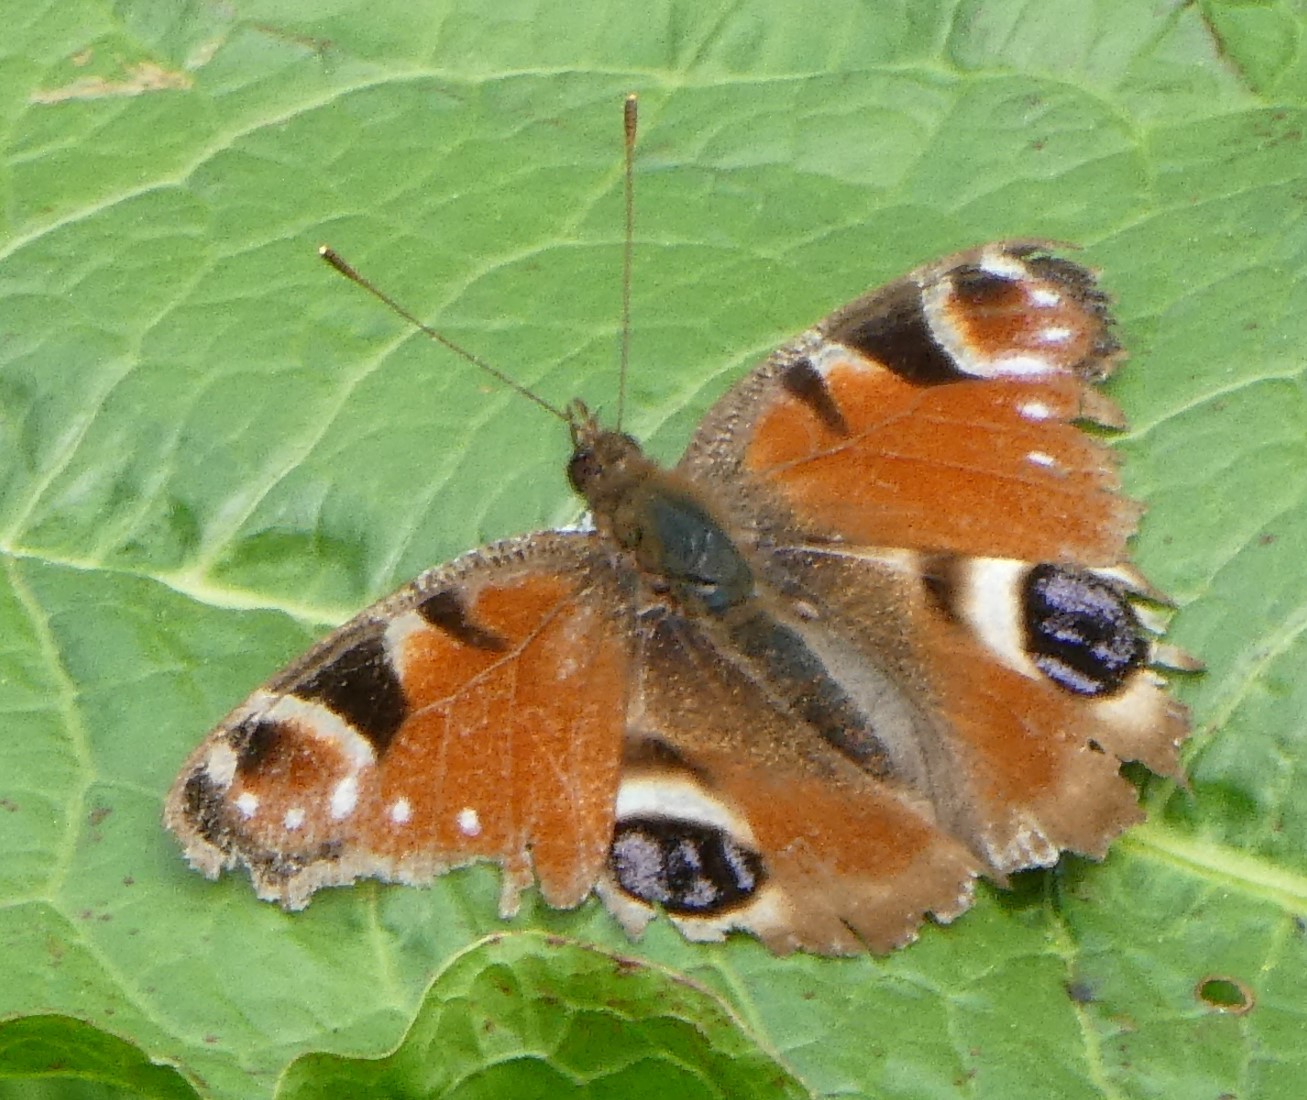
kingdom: Animalia
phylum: Arthropoda
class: Insecta
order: Lepidoptera
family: Nymphalidae
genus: Aglais
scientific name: Aglais io
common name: Peacock
